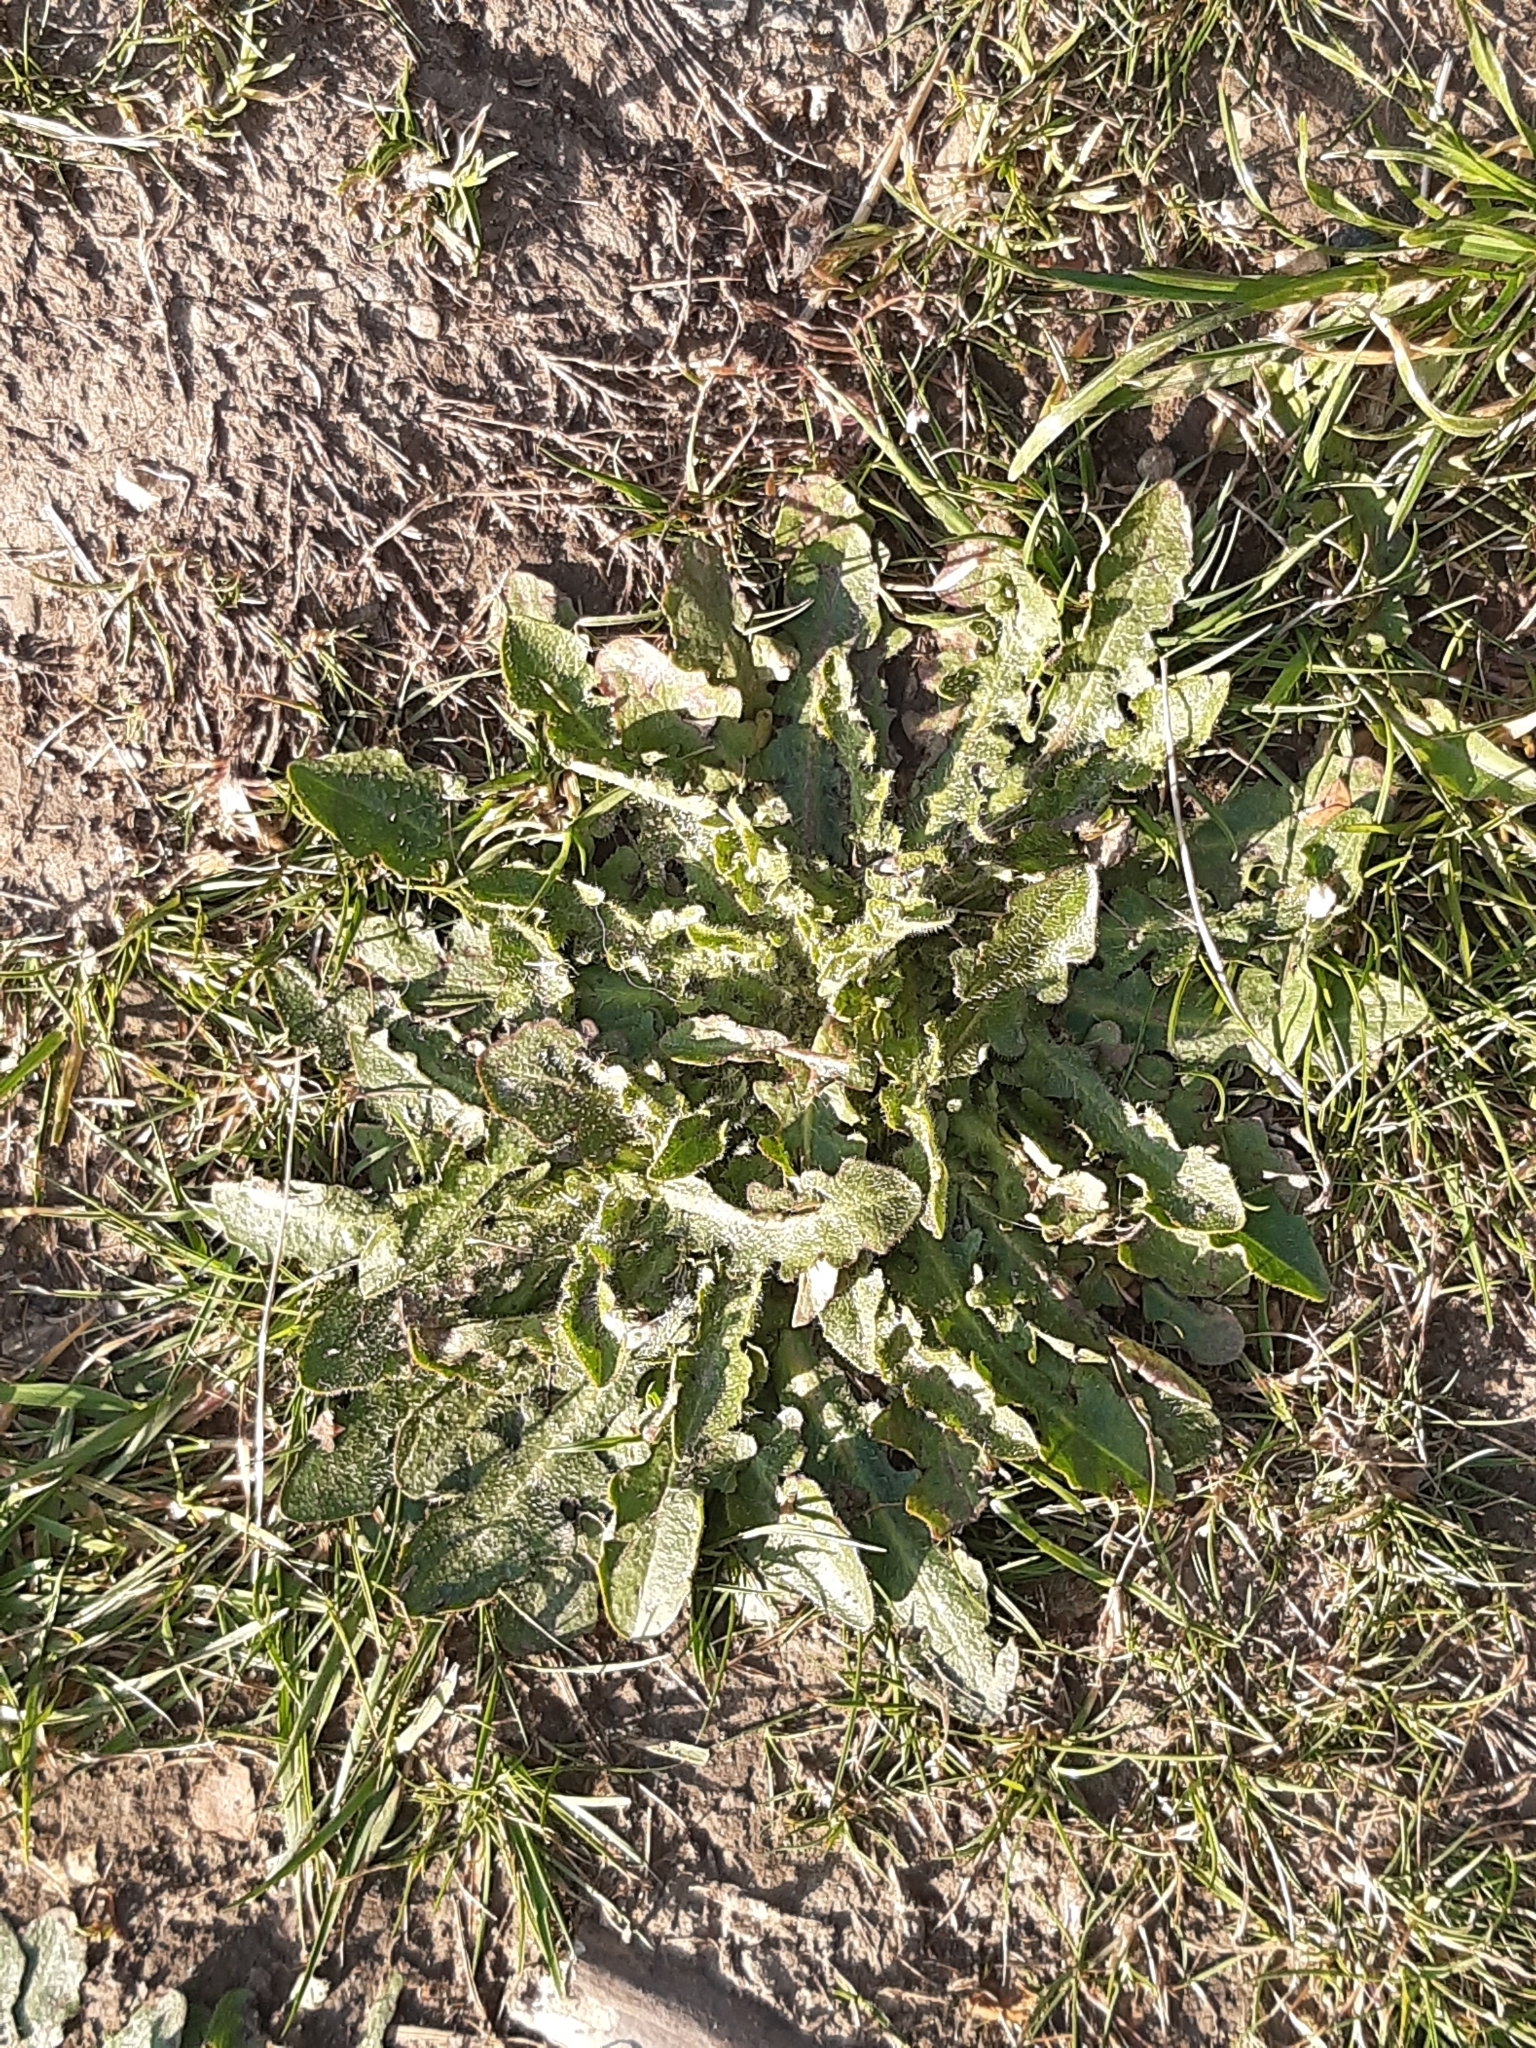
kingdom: Plantae
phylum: Tracheophyta
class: Magnoliopsida
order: Asterales
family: Asteraceae
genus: Hypochaeris
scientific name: Hypochaeris radicata
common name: Flatweed
